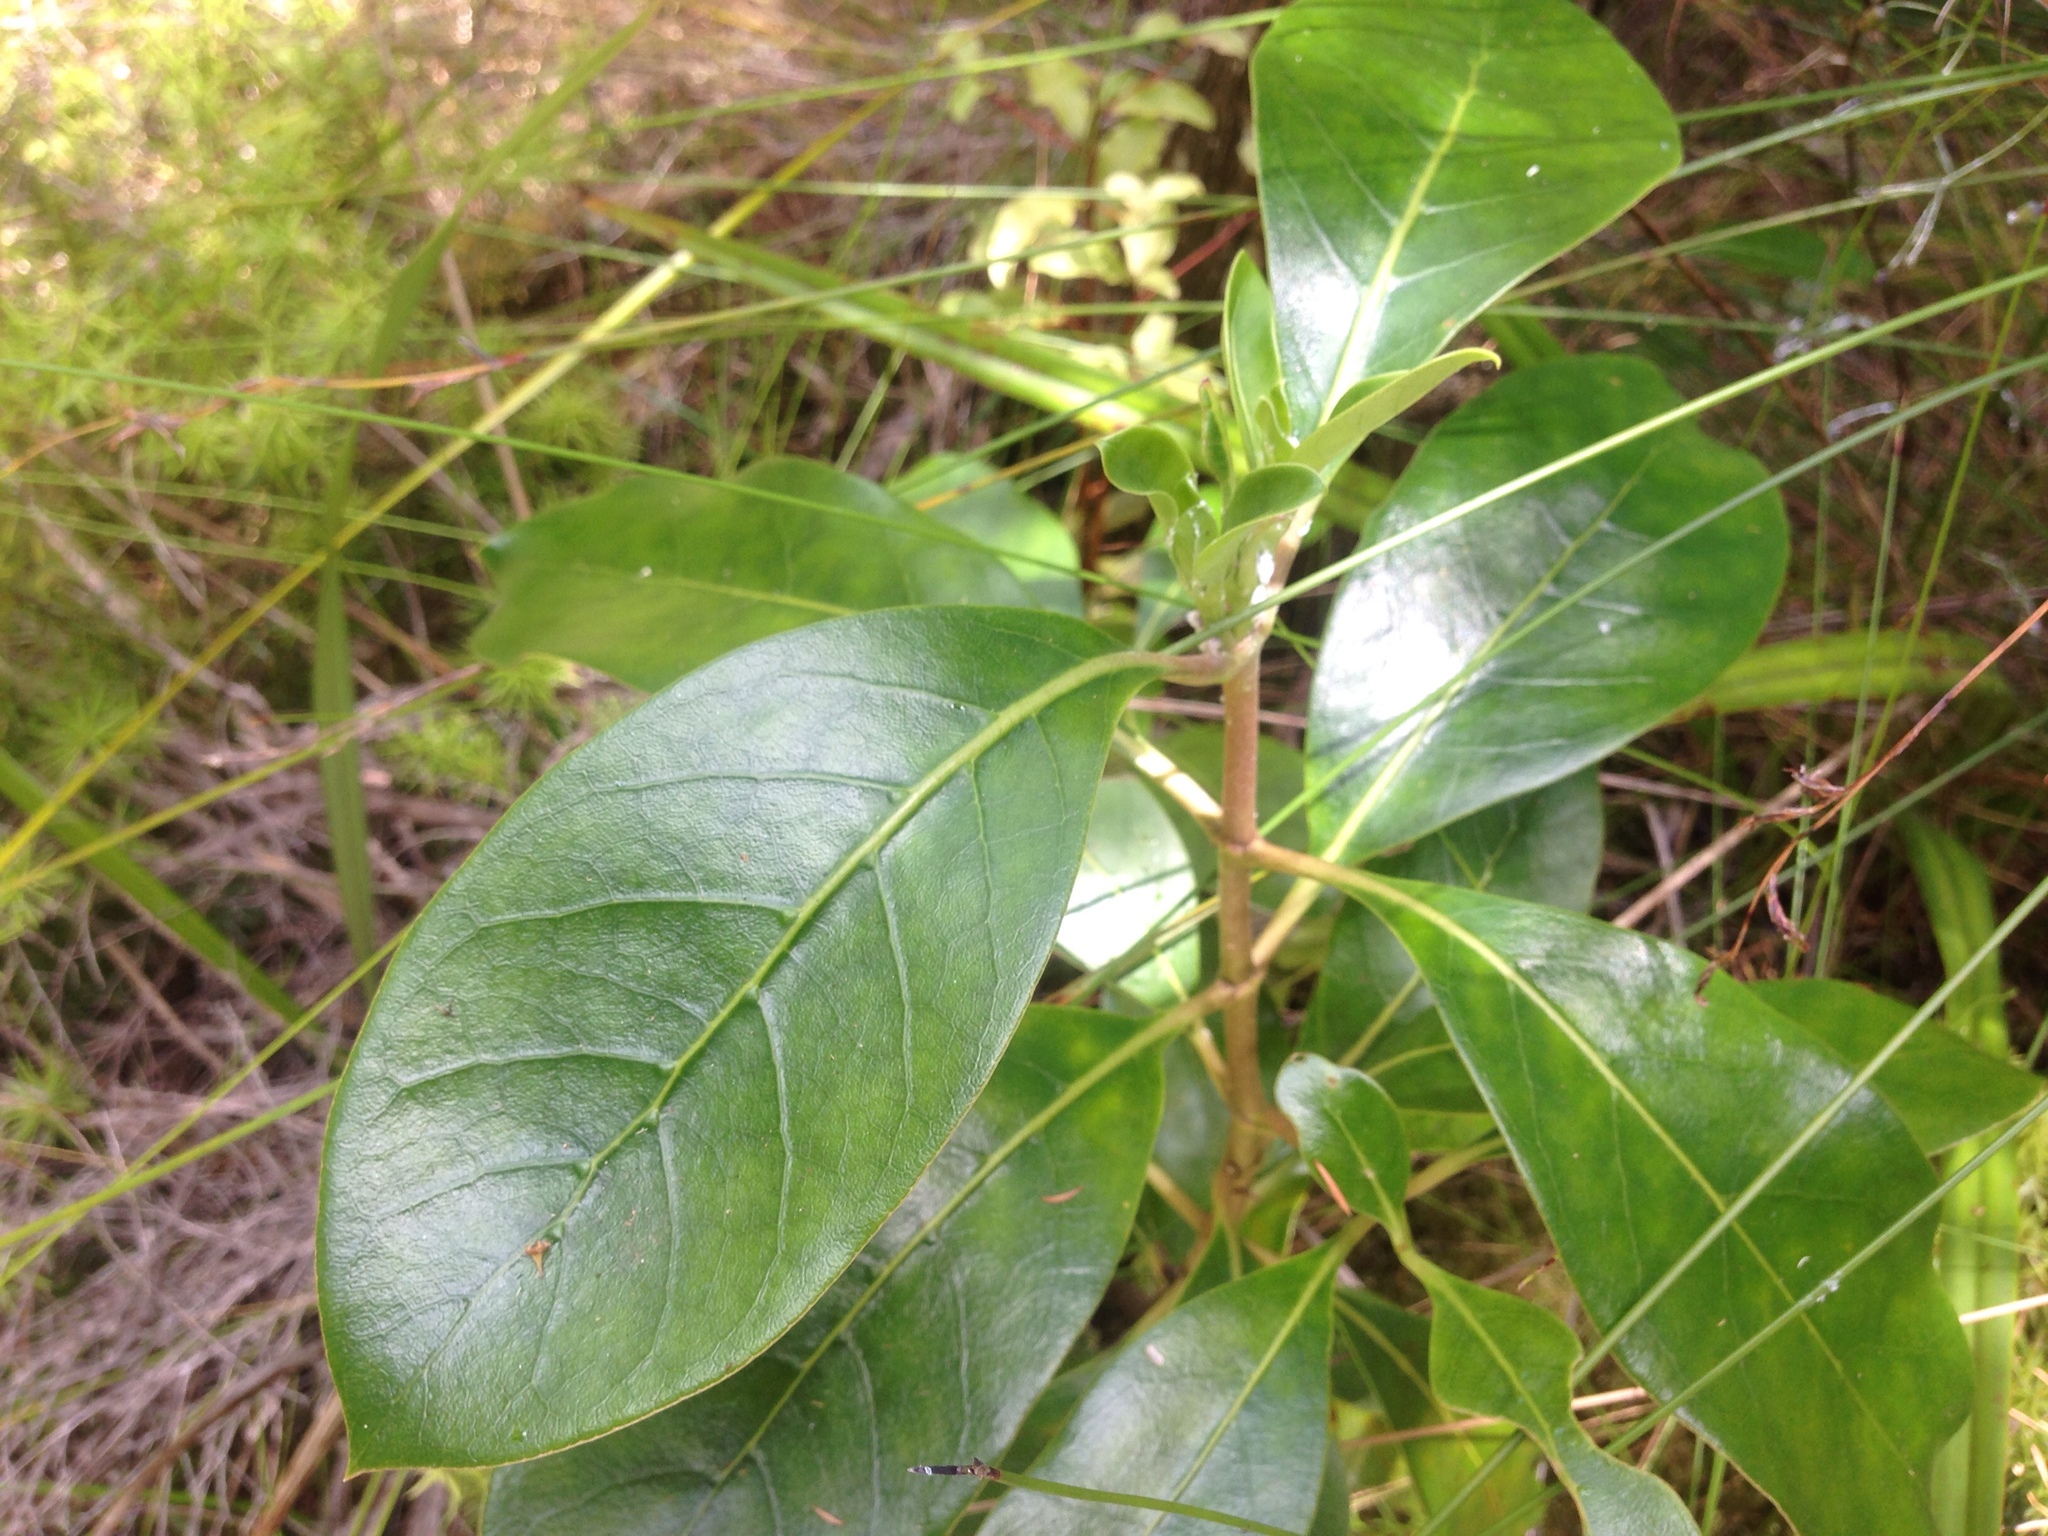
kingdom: Plantae
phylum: Tracheophyta
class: Magnoliopsida
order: Gentianales
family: Rubiaceae
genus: Coprosma
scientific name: Coprosma lucida
